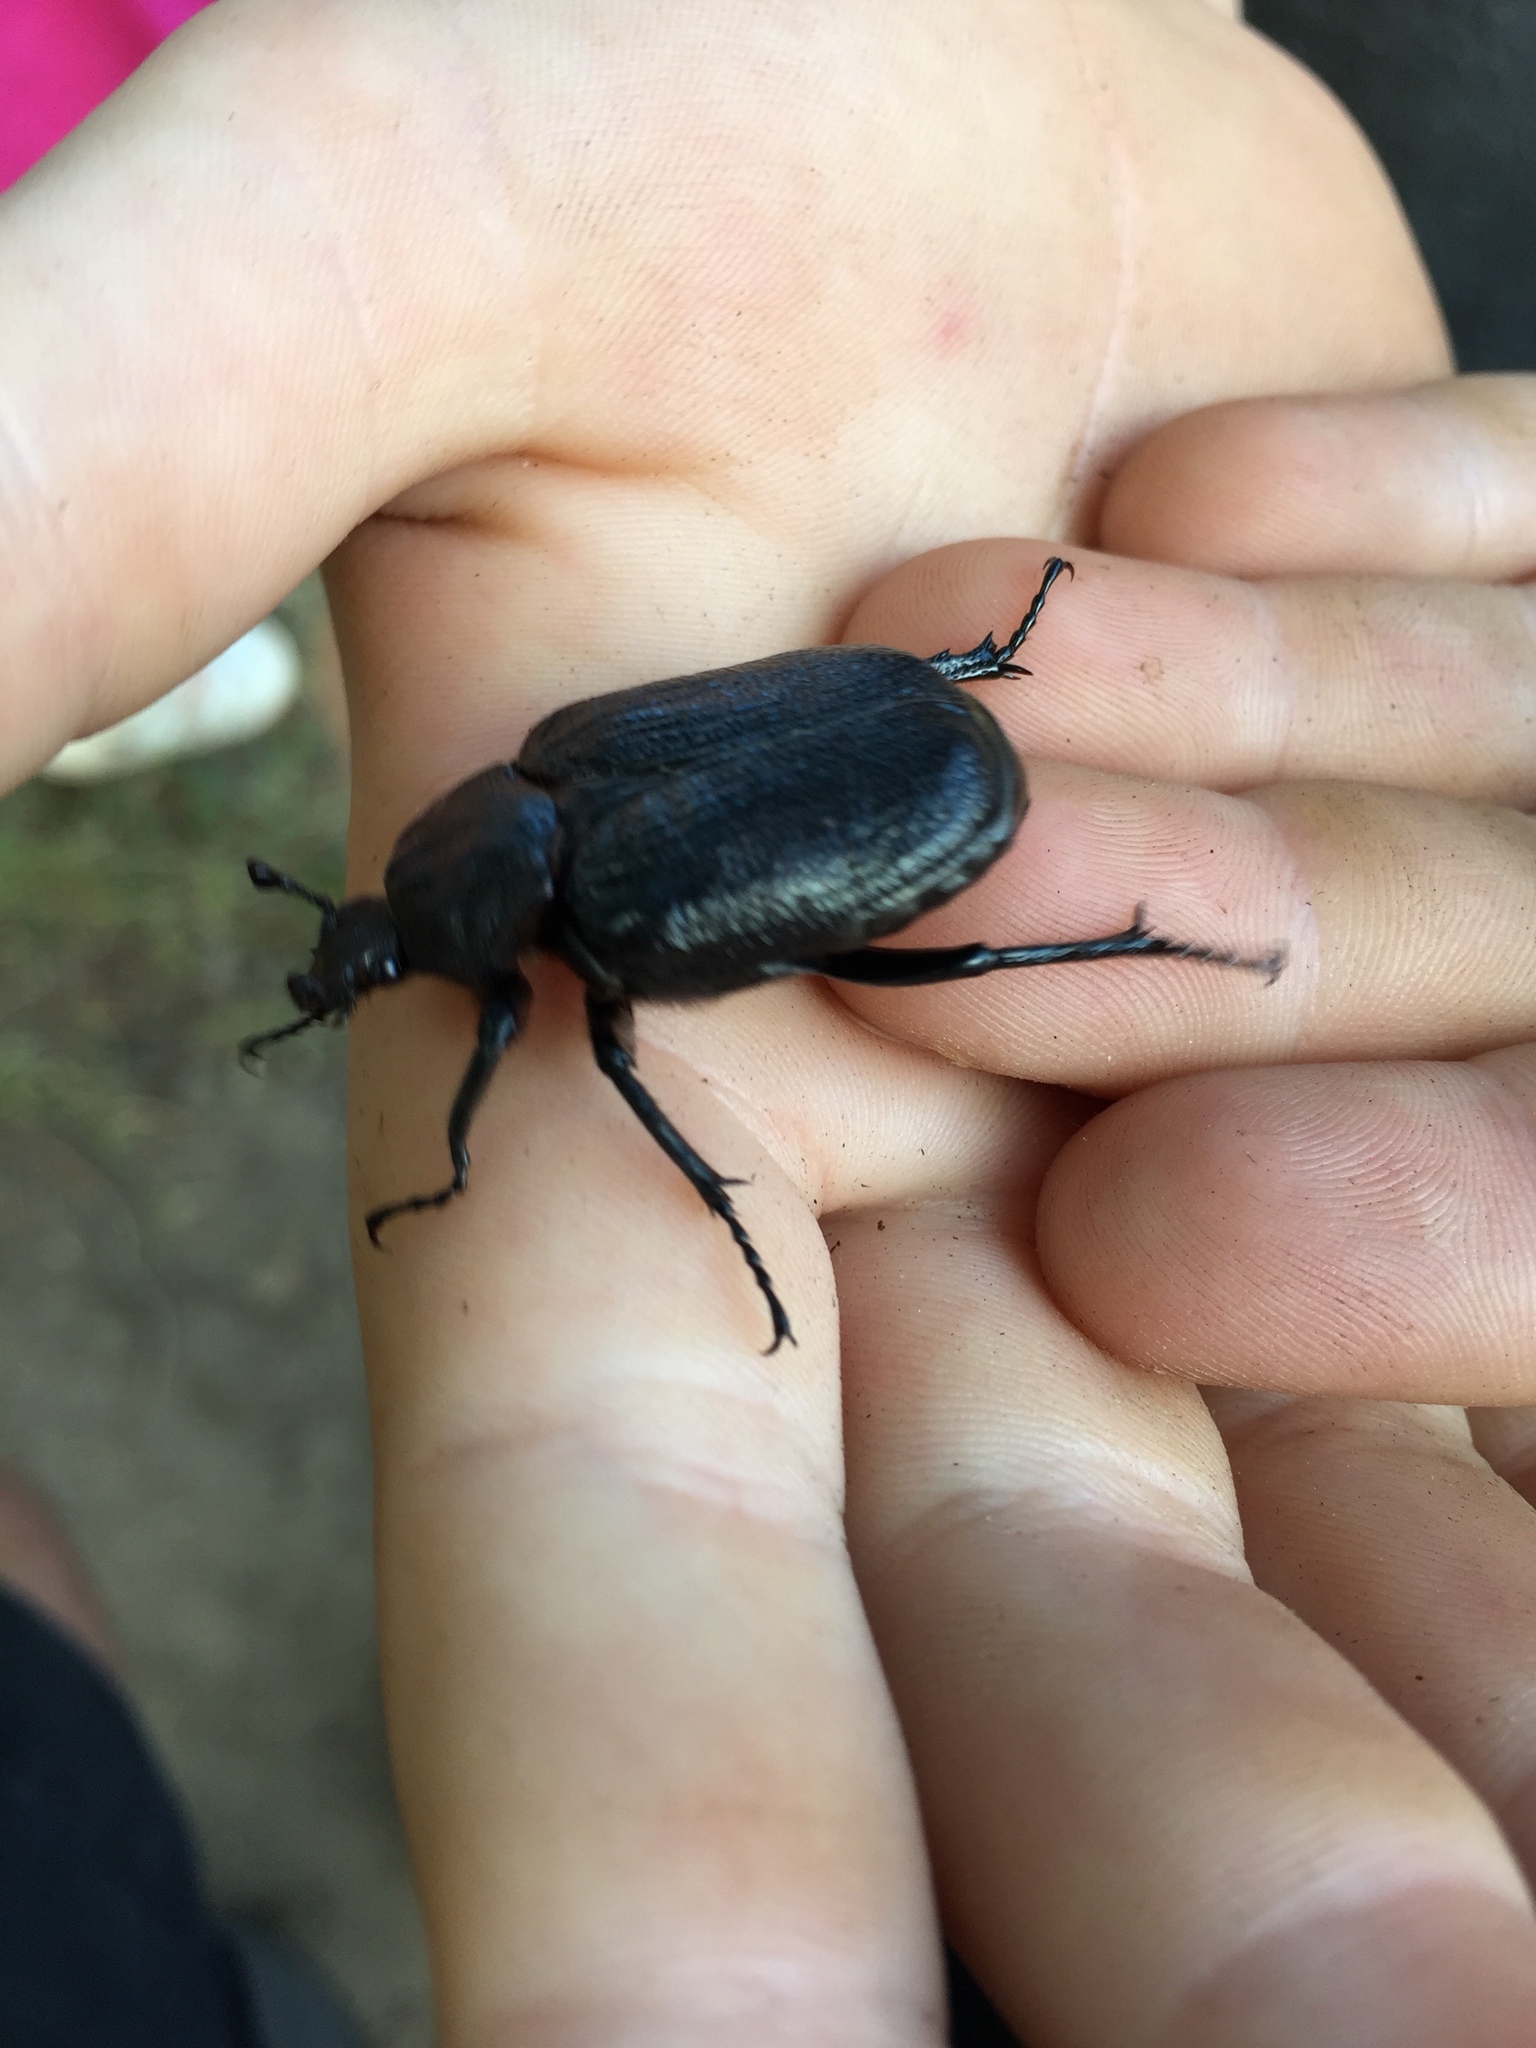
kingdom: Animalia
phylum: Arthropoda
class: Insecta
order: Coleoptera
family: Scarabaeidae
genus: Osmoderma
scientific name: Osmoderma scabra
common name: Rough hermit beetle
